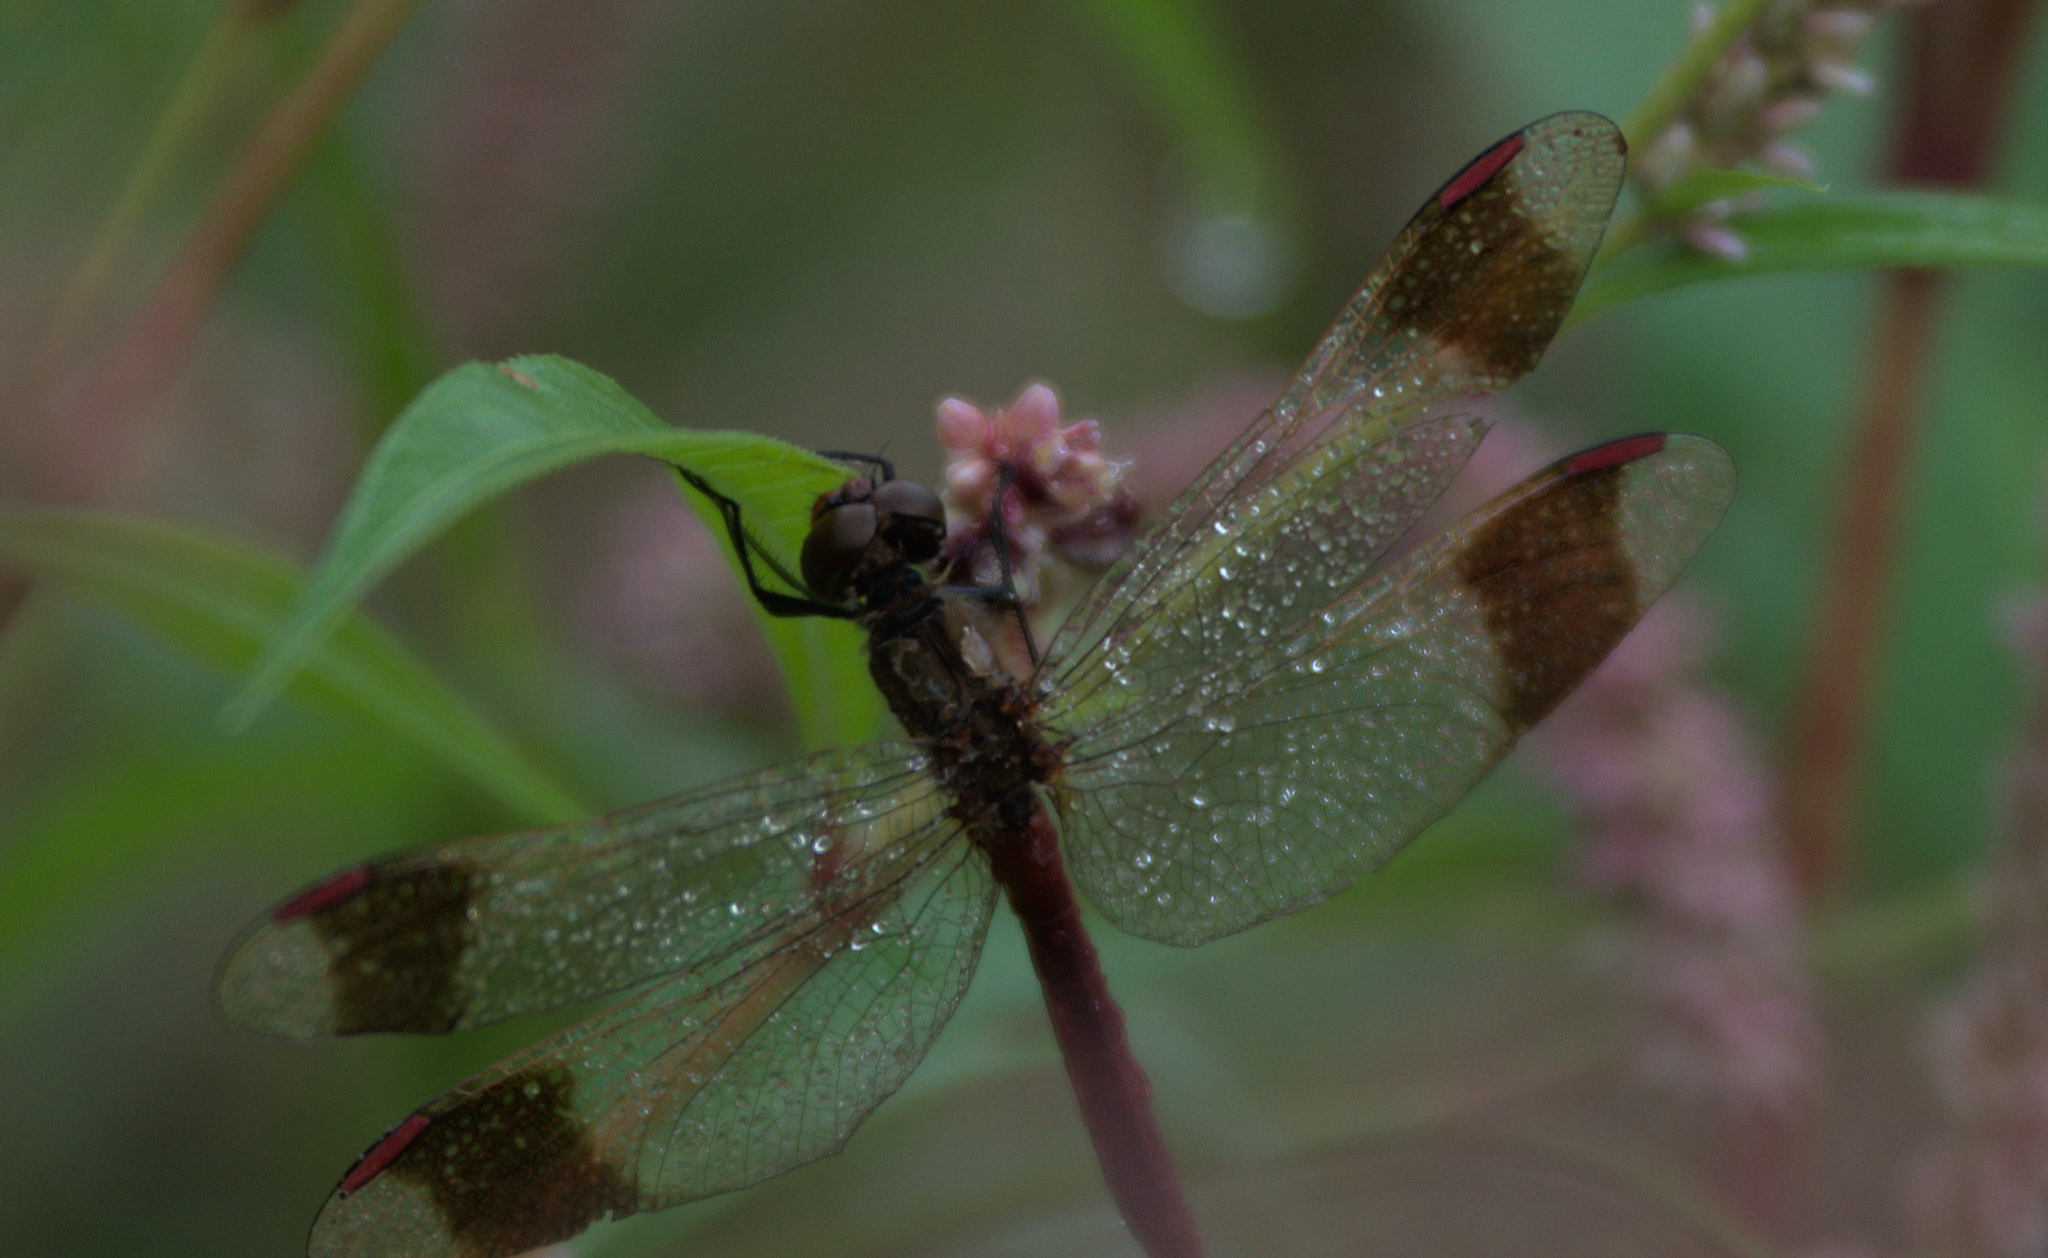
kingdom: Animalia
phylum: Arthropoda
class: Insecta
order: Odonata
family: Libellulidae
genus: Sympetrum
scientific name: Sympetrum pedemontanum
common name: Banded darter
